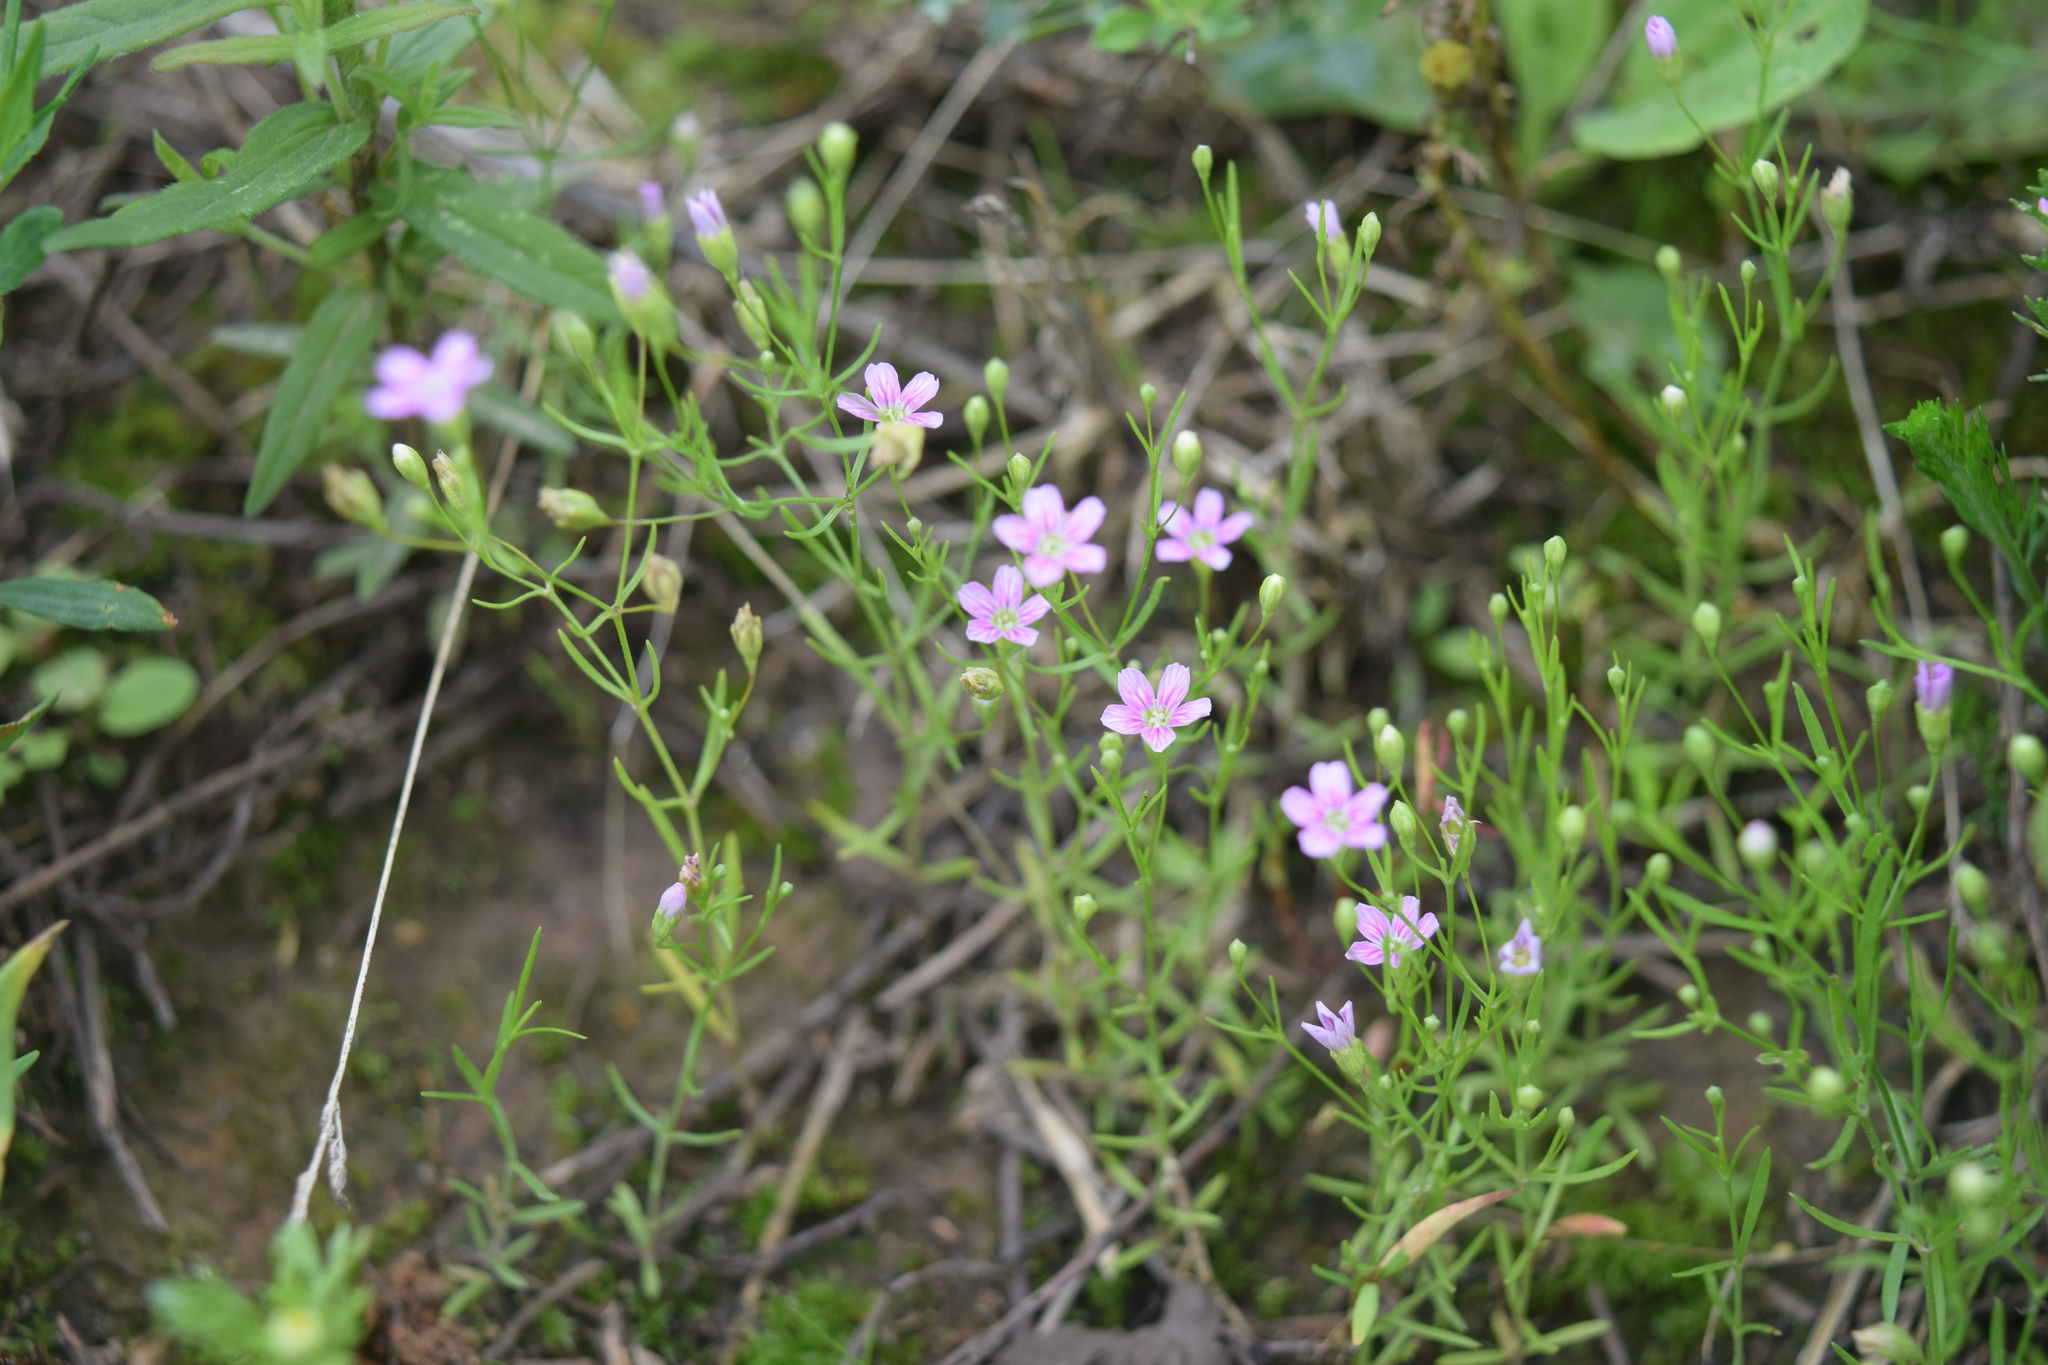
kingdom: Plantae
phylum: Tracheophyta
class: Magnoliopsida
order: Caryophyllales
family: Caryophyllaceae
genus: Psammophiliella
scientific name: Psammophiliella muralis
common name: Cushion baby's-breath
